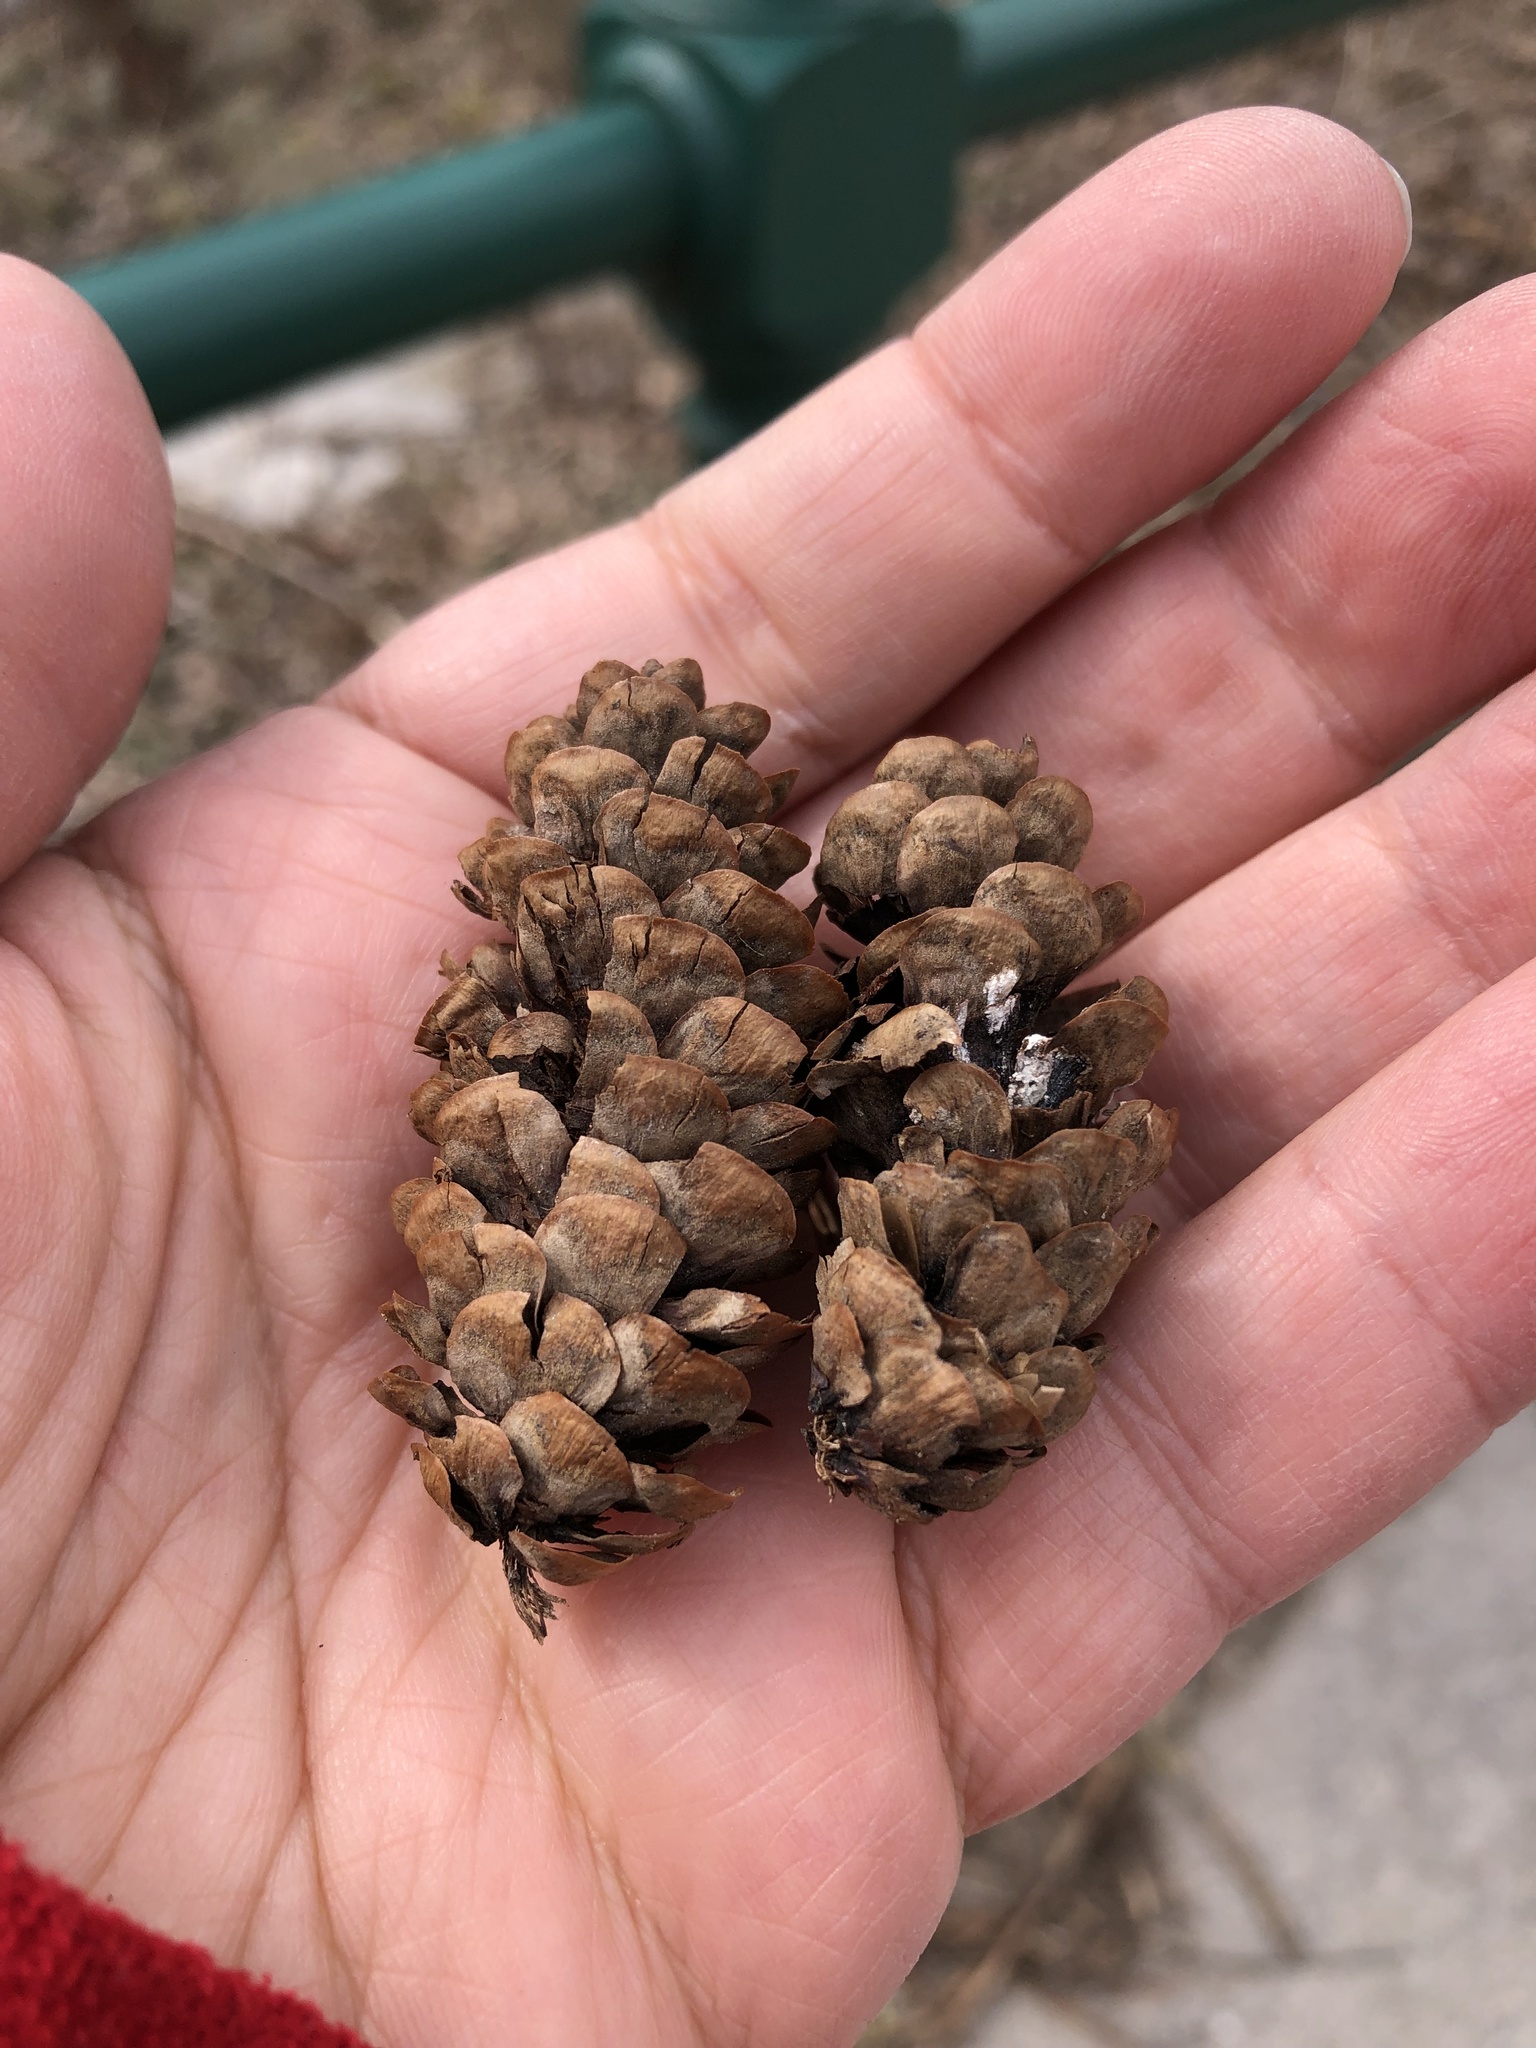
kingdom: Plantae
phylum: Tracheophyta
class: Pinopsida
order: Pinales
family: Pinaceae
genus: Picea
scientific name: Picea glauca
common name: White spruce
